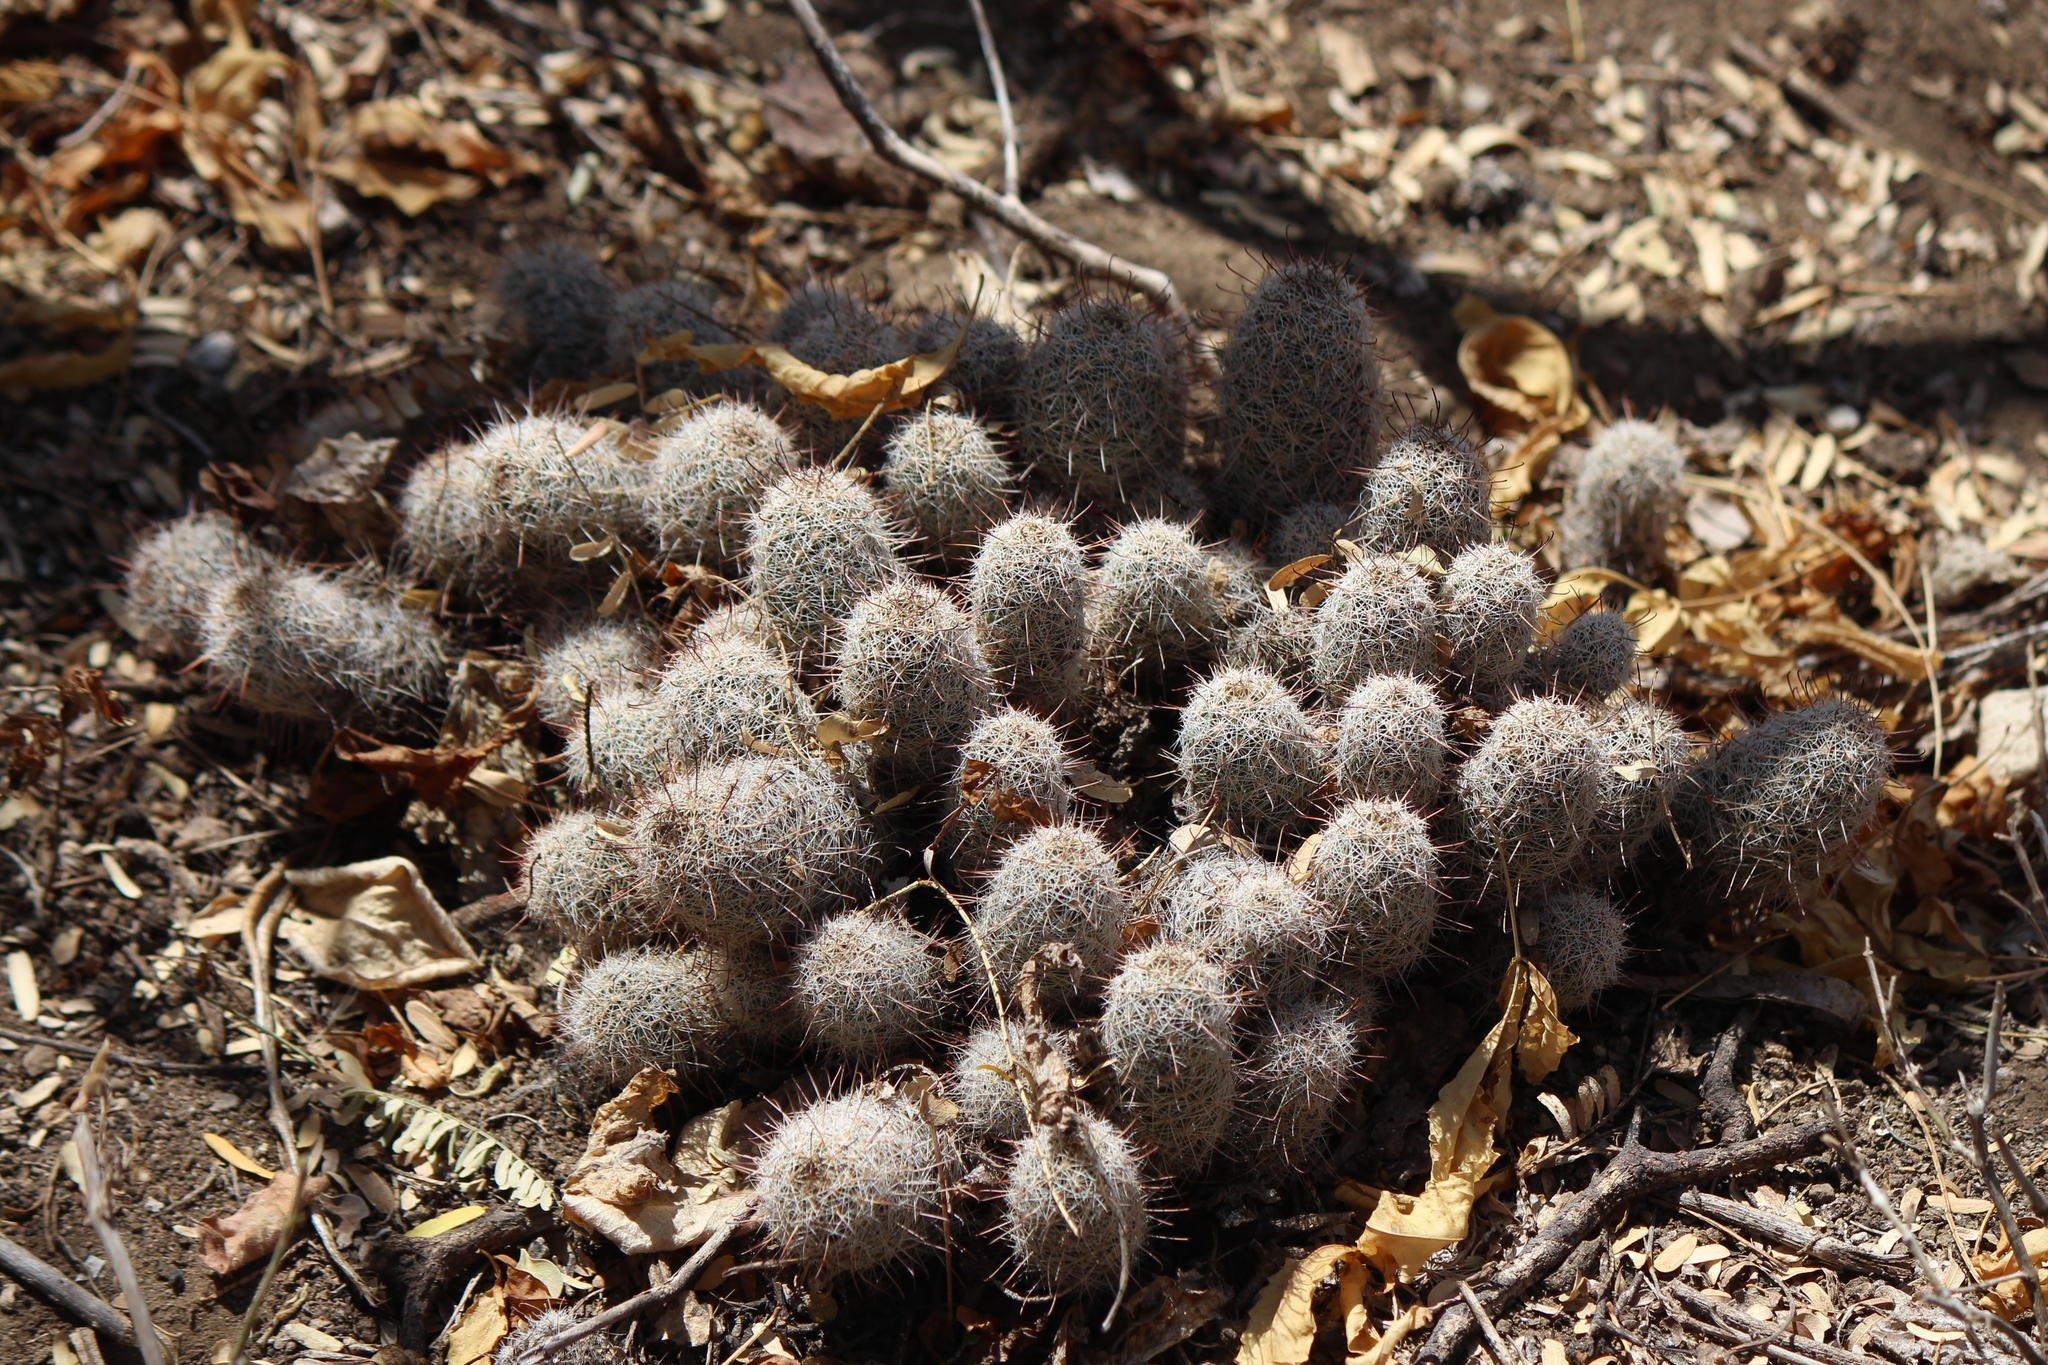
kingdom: Plantae
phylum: Tracheophyta
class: Magnoliopsida
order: Caryophyllales
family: Cactaceae
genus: Cochemiea
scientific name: Cochemiea capensis
